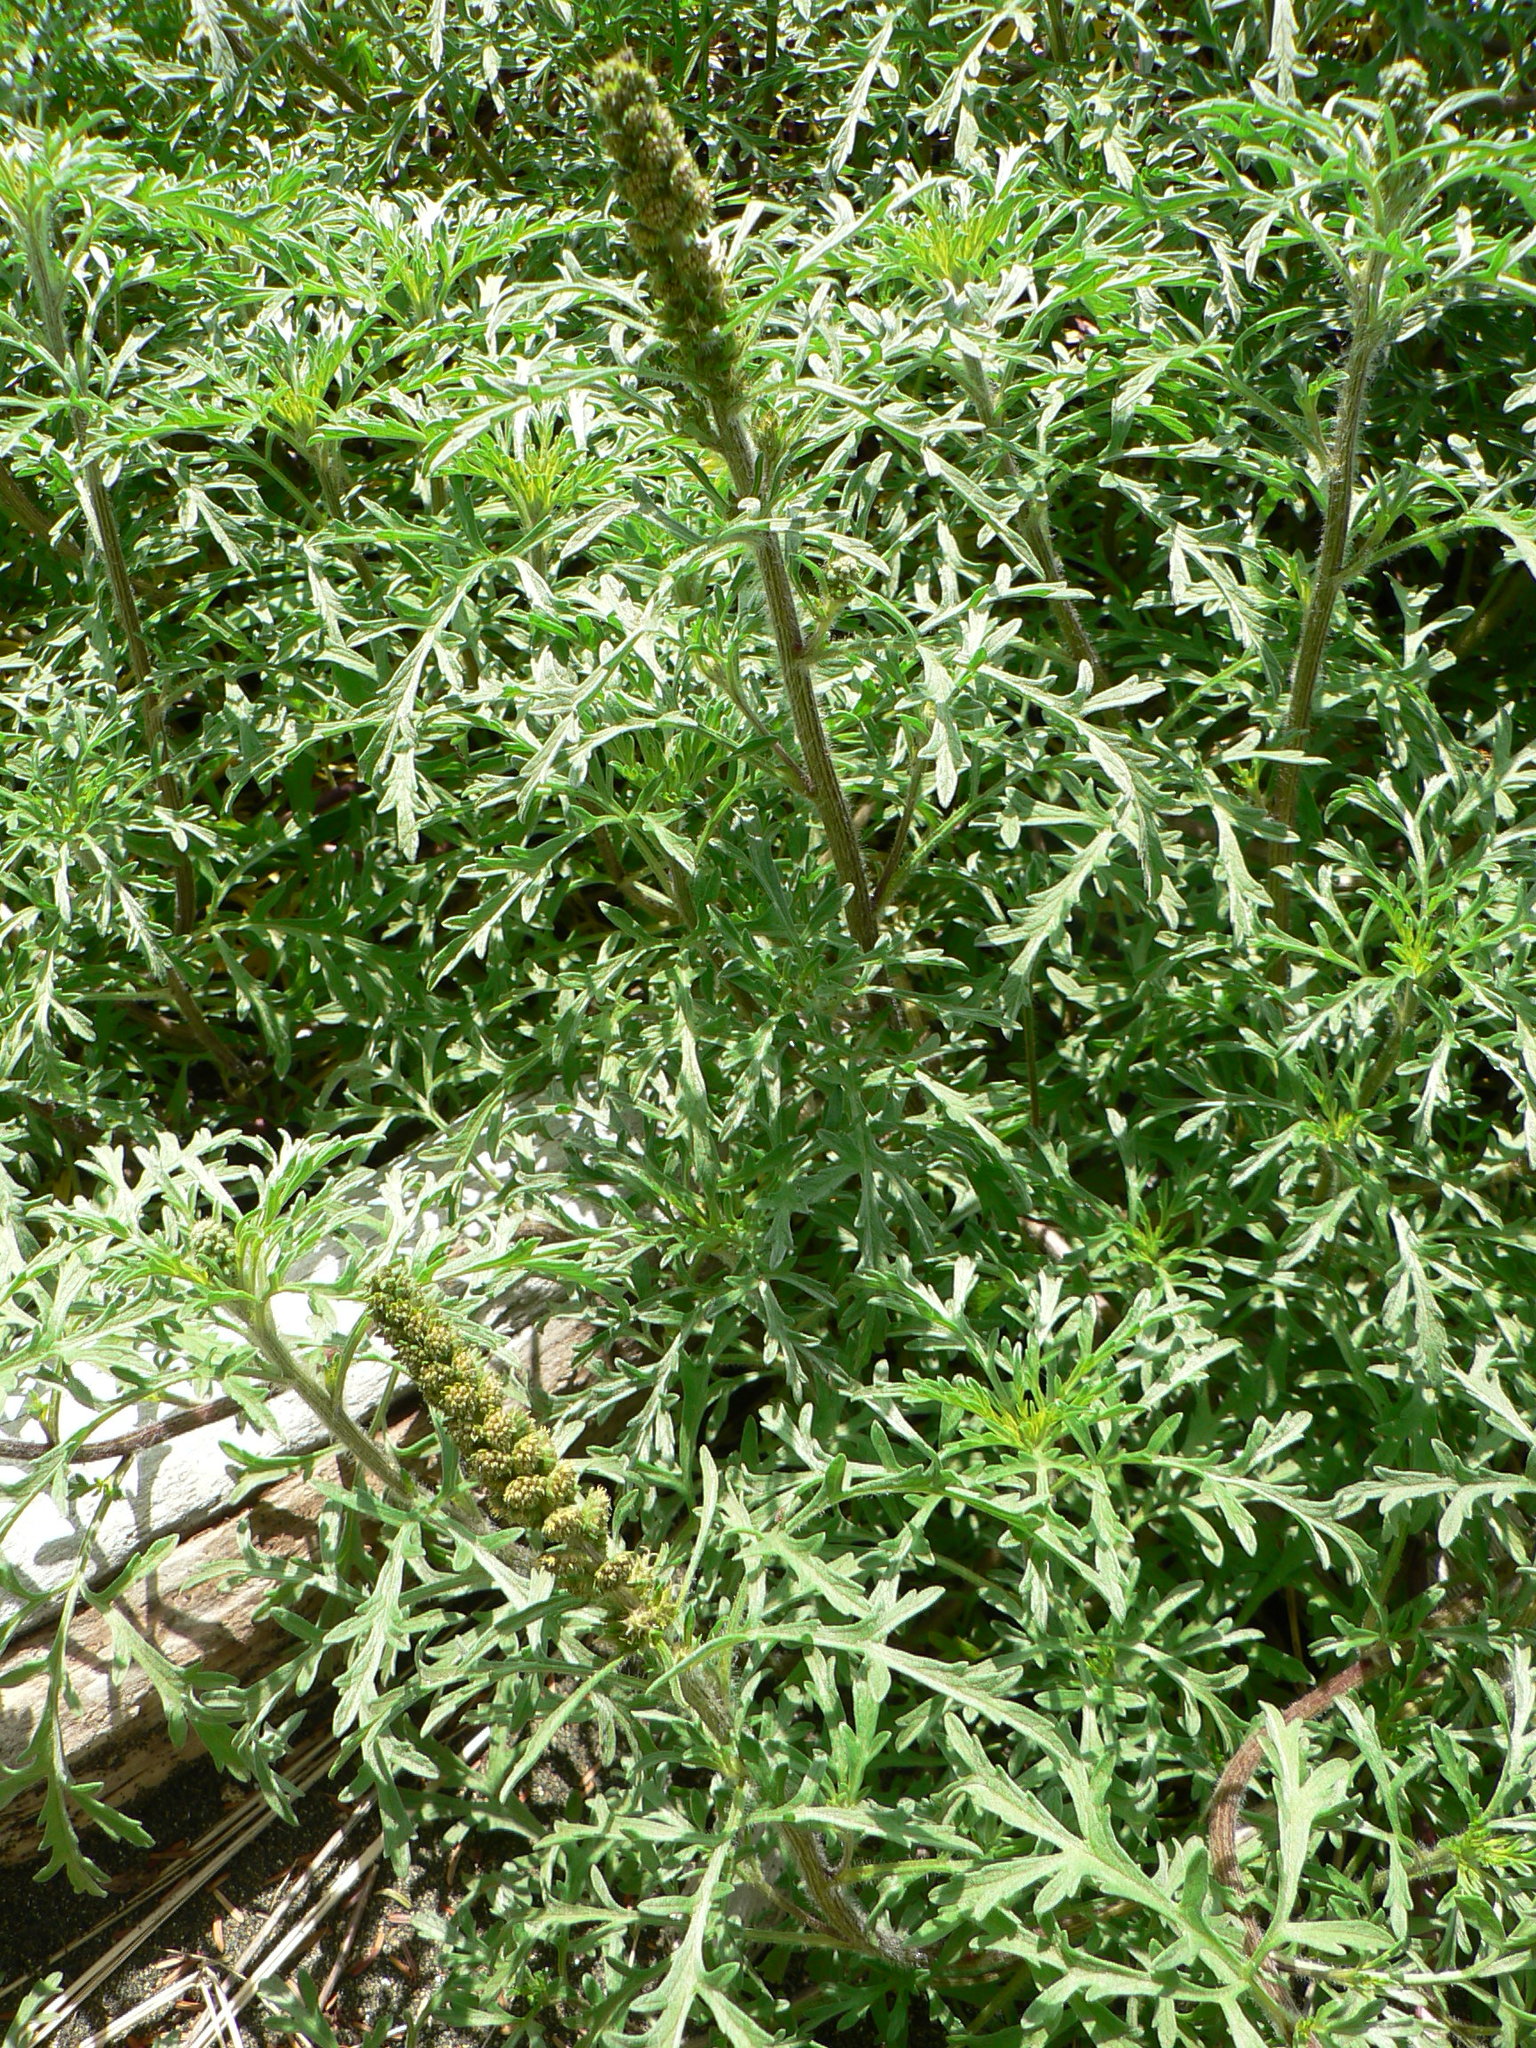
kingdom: Plantae
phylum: Tracheophyta
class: Magnoliopsida
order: Asterales
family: Asteraceae
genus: Ambrosia
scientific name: Ambrosia chamissonis
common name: Beachbur
